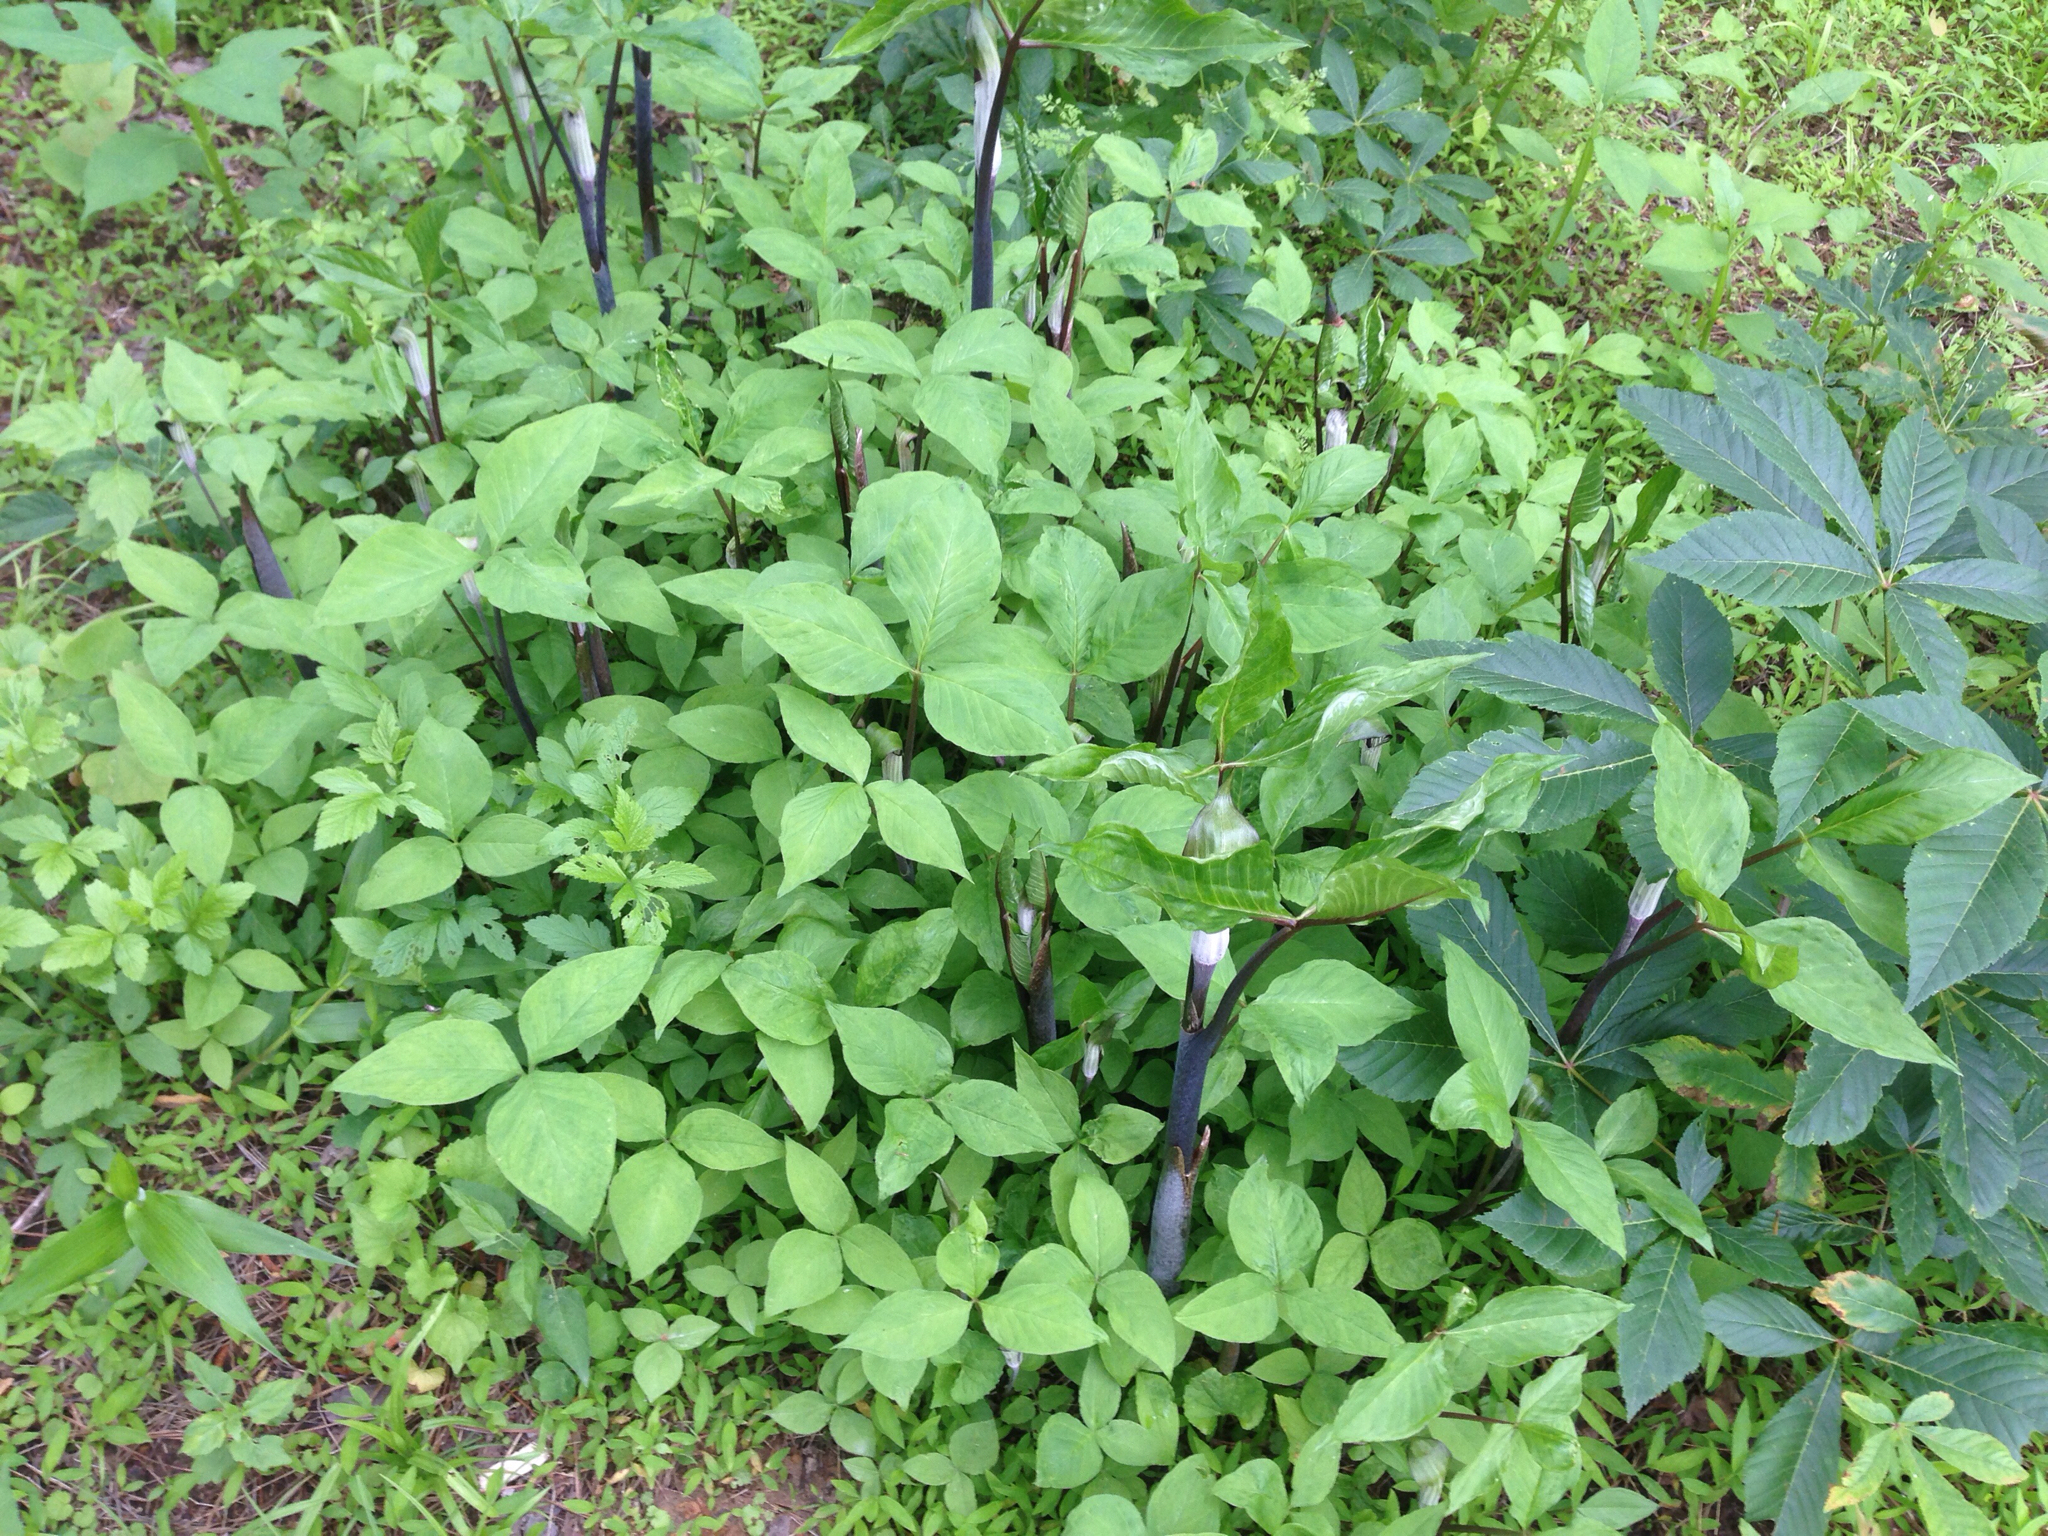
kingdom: Plantae
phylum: Tracheophyta
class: Liliopsida
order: Alismatales
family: Araceae
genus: Arisaema
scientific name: Arisaema triphyllum
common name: Jack-in-the-pulpit
